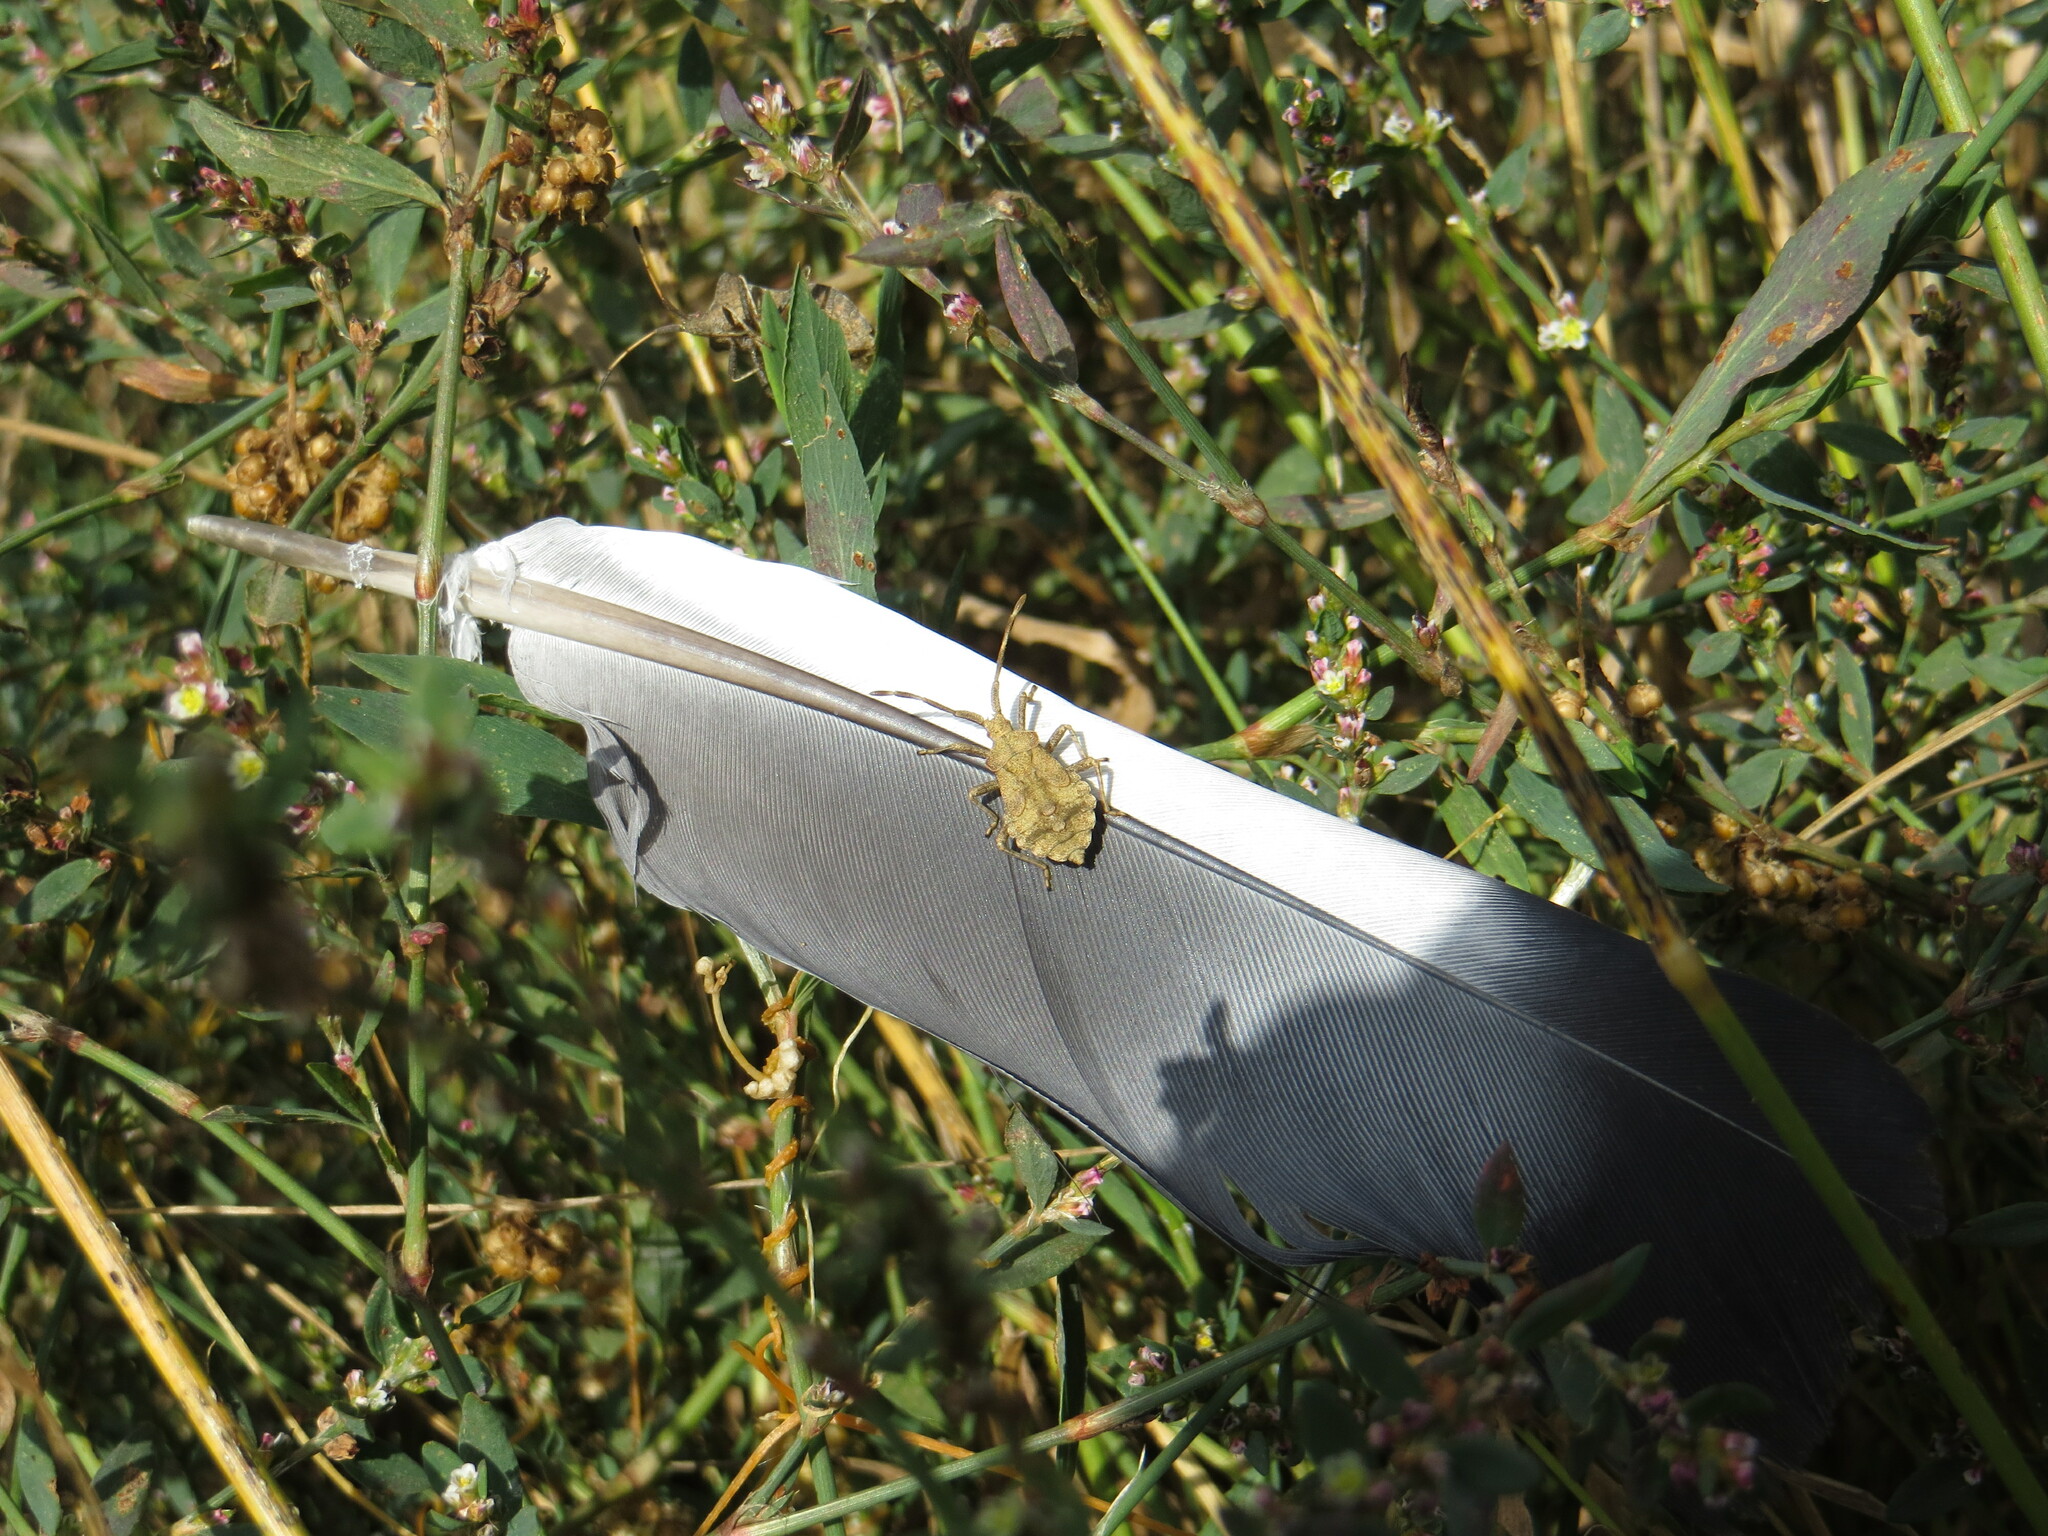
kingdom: Animalia
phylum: Arthropoda
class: Insecta
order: Hemiptera
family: Coreidae
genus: Coreus
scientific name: Coreus marginatus
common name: Dock bug
